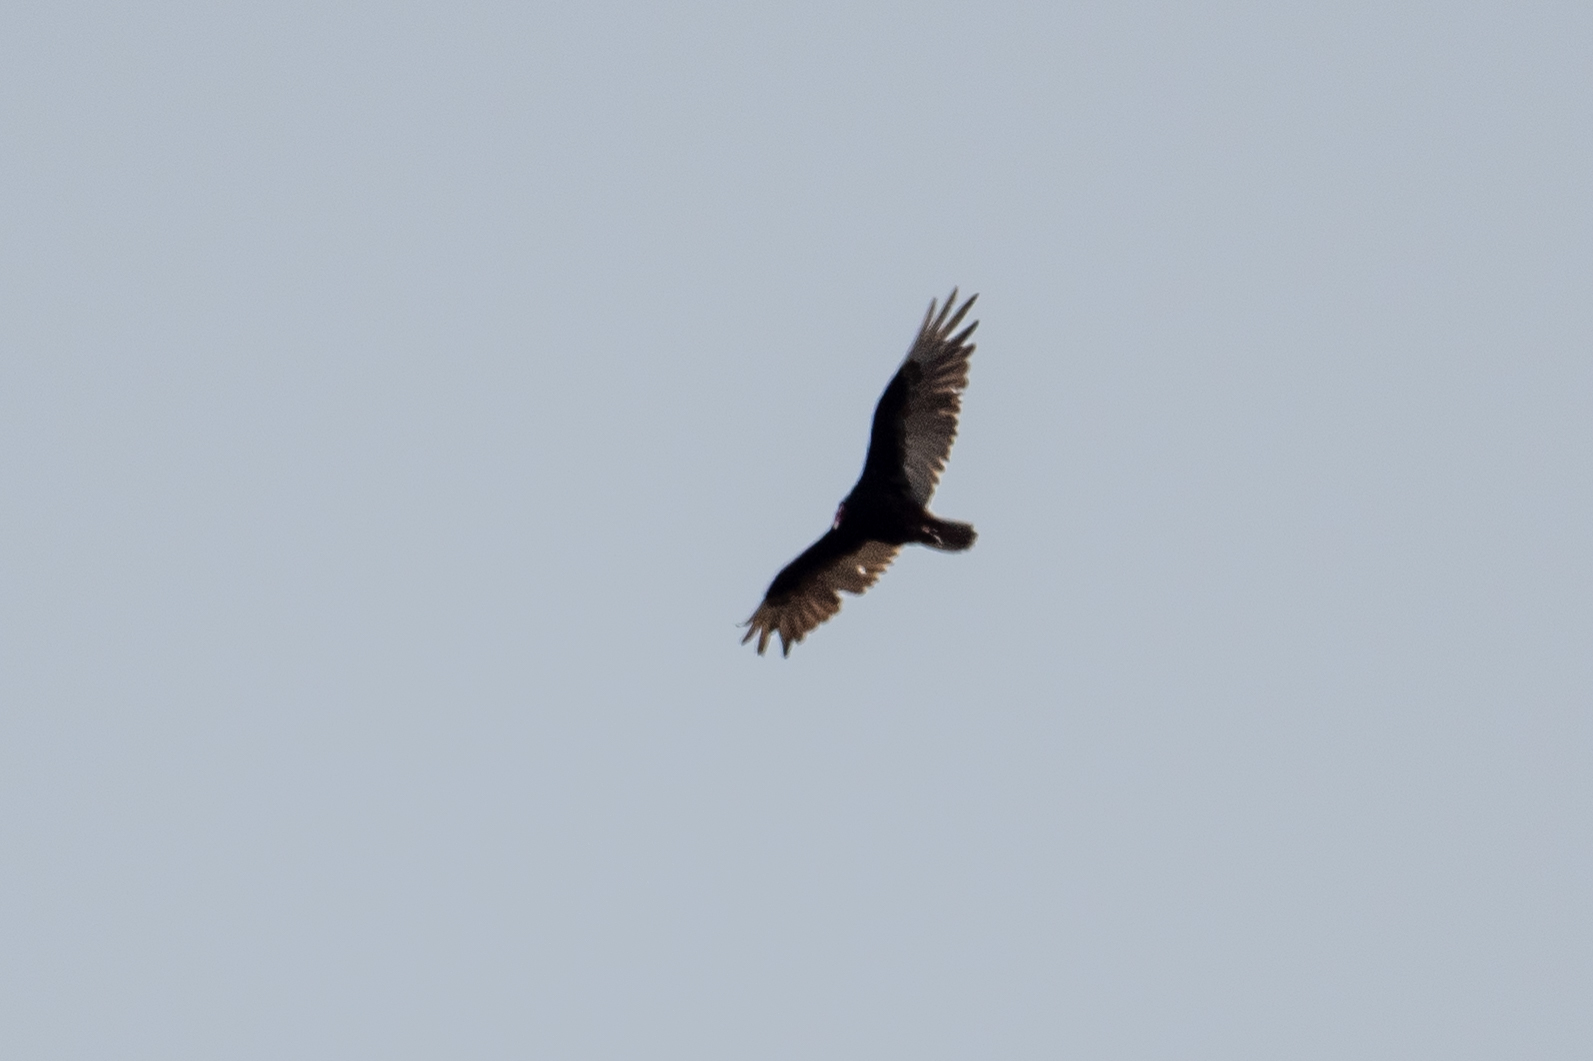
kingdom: Animalia
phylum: Chordata
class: Aves
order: Accipitriformes
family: Cathartidae
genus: Cathartes
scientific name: Cathartes aura
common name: Turkey vulture
